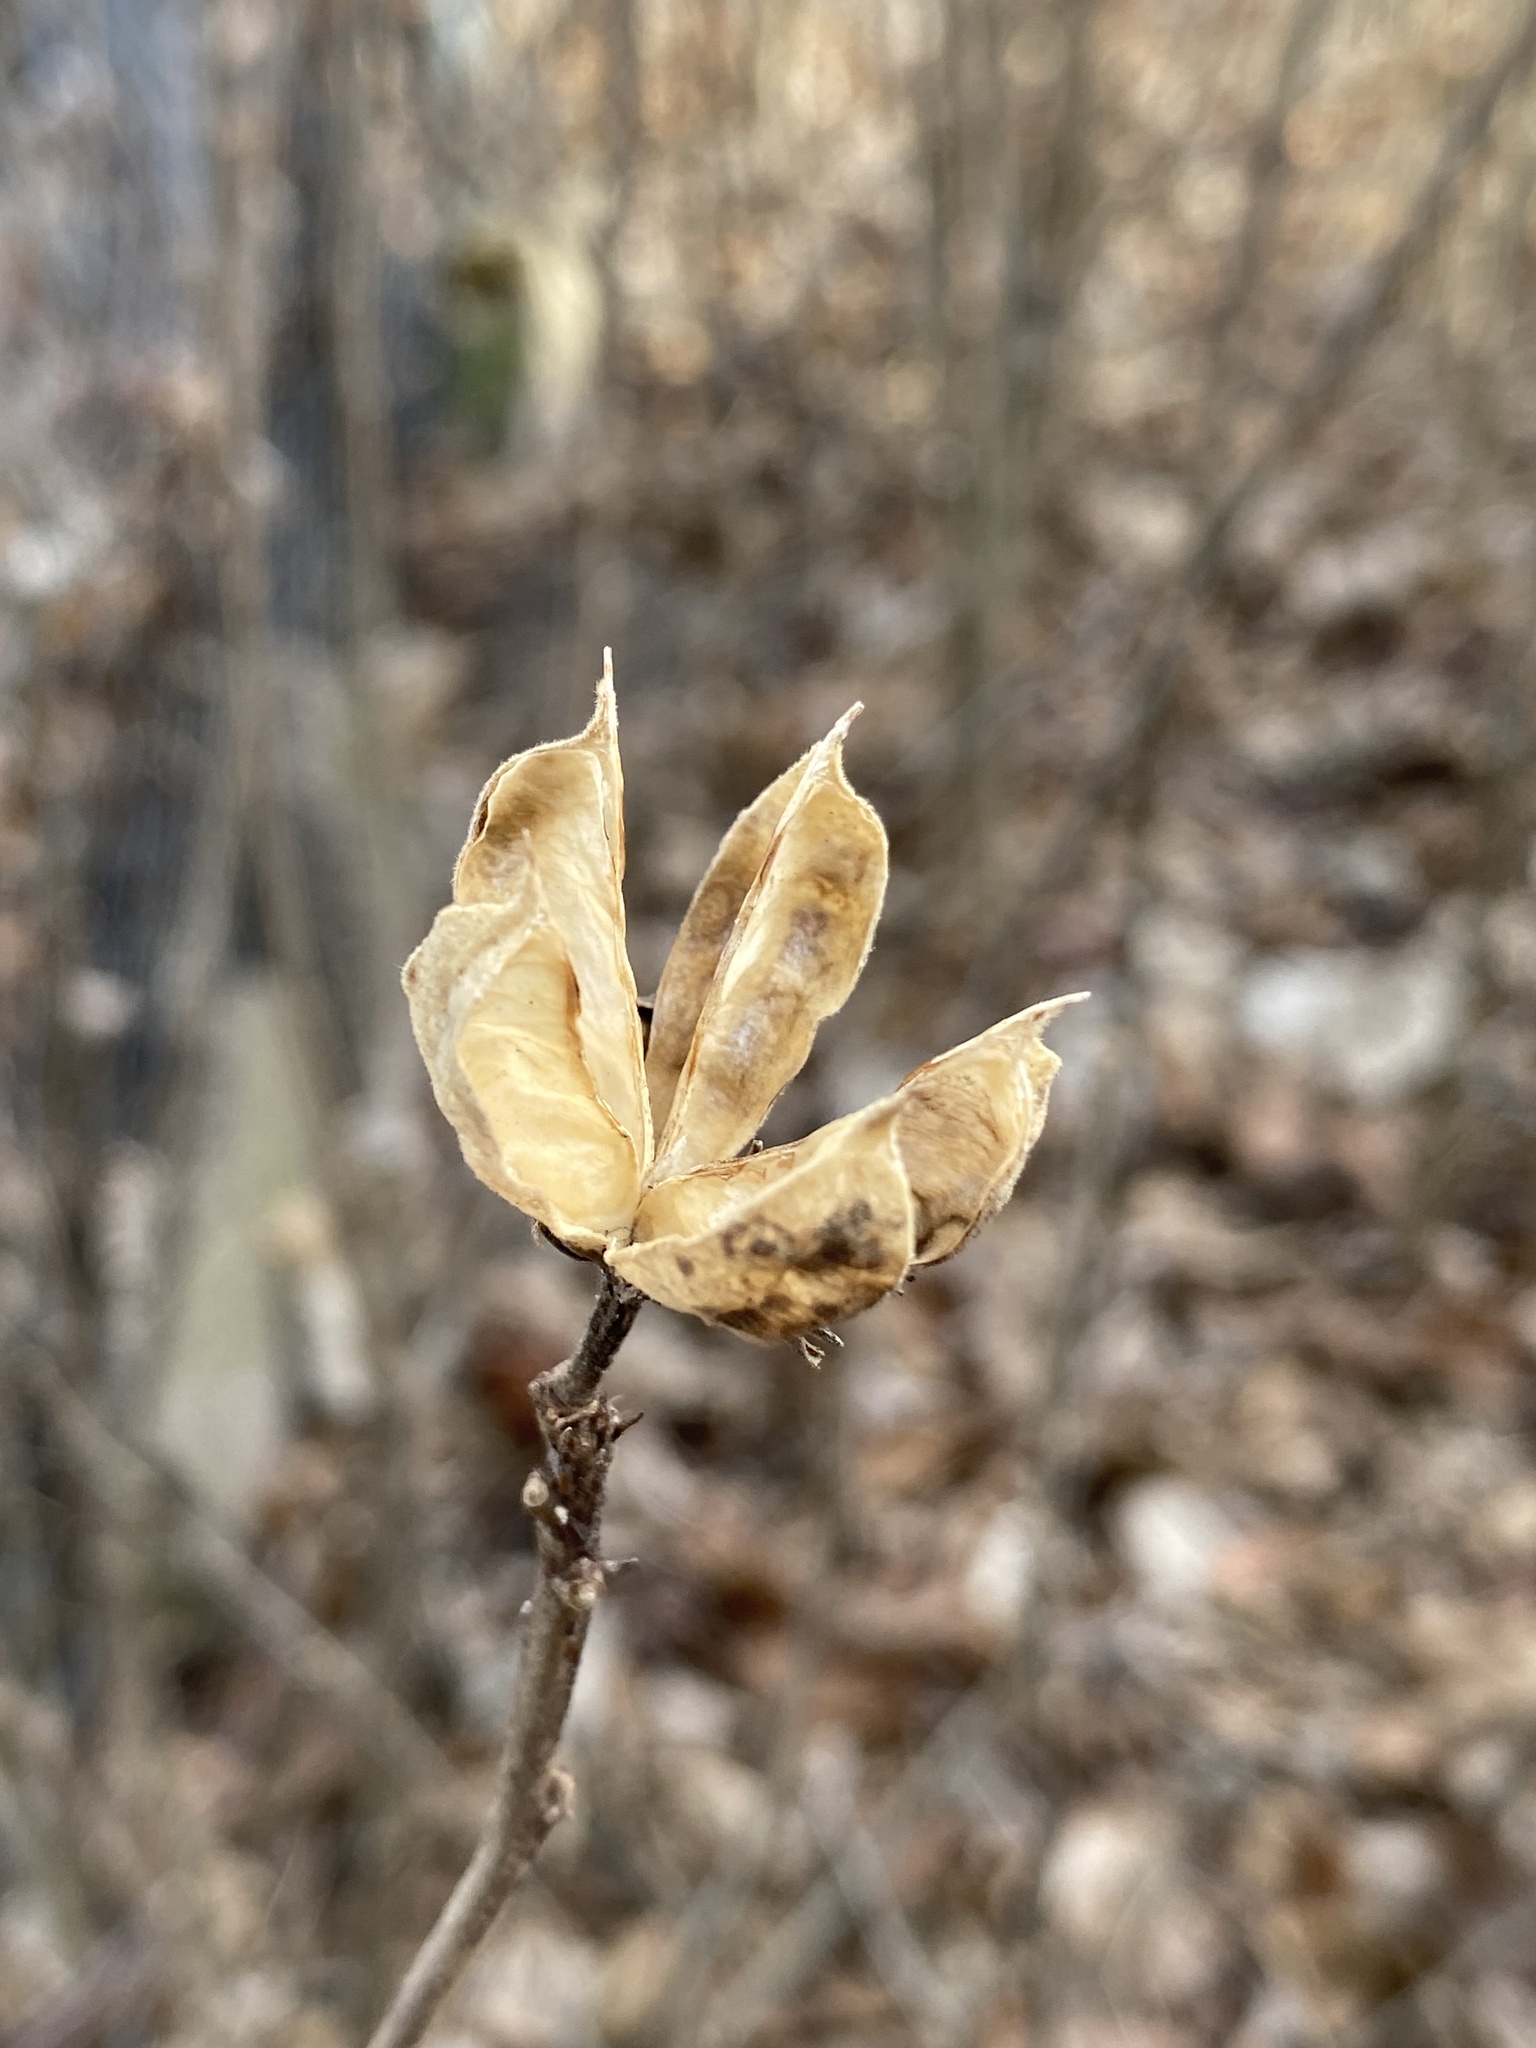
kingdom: Plantae
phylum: Tracheophyta
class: Magnoliopsida
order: Malvales
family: Malvaceae
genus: Hibiscus
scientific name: Hibiscus syriacus
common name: Syrian ketmia
